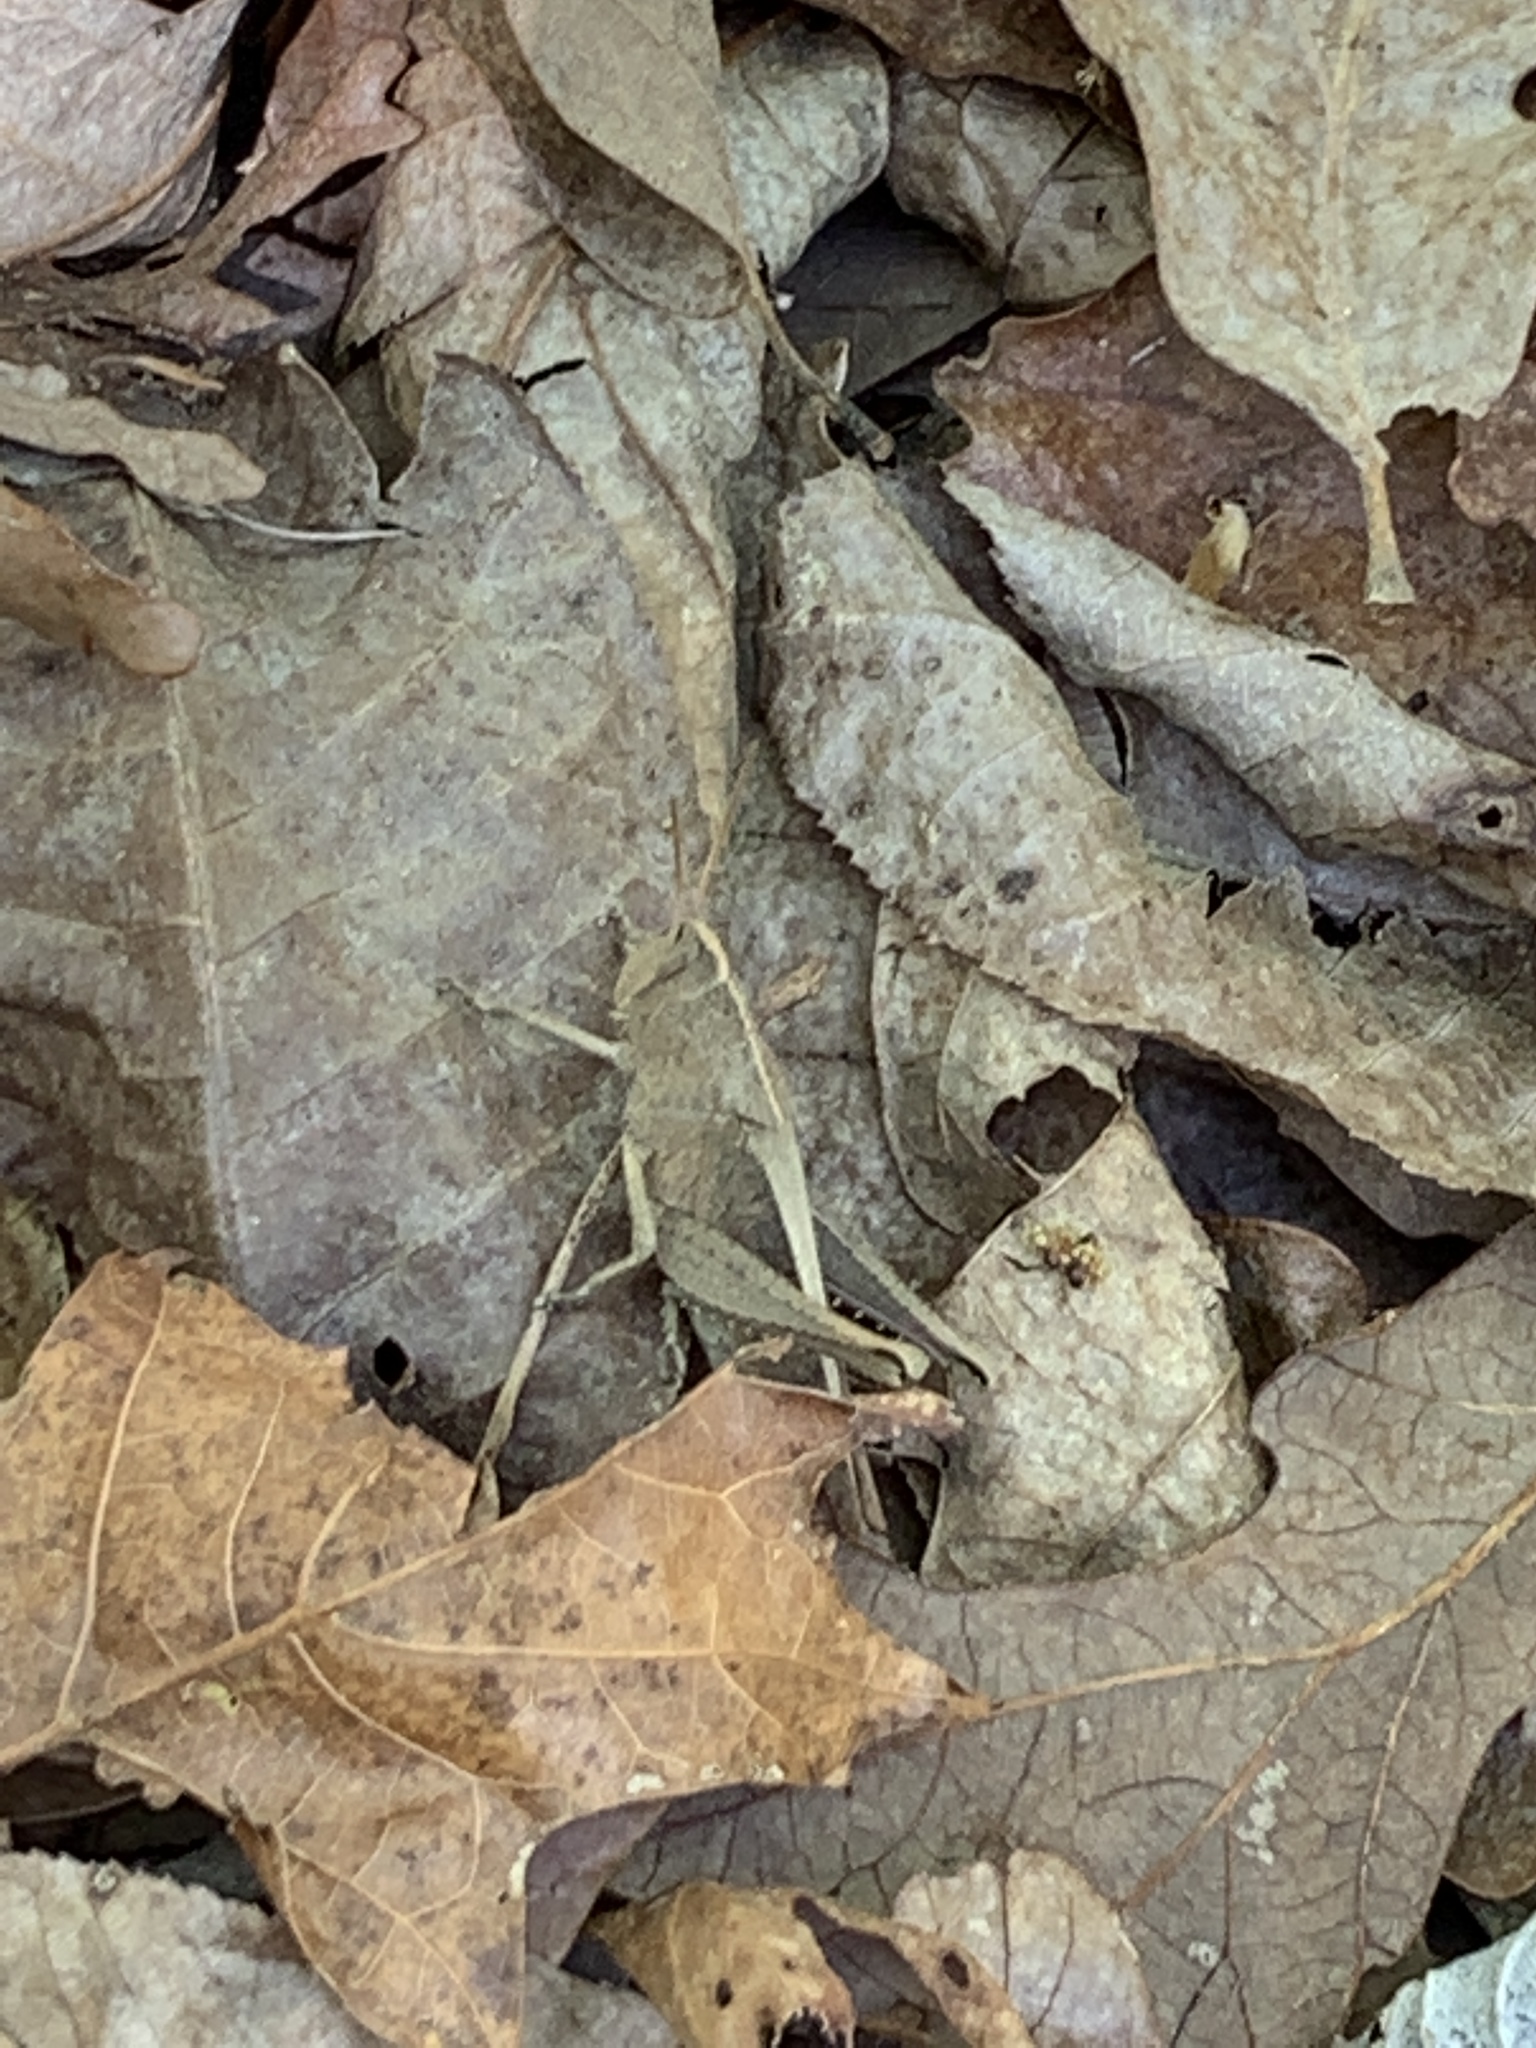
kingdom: Animalia
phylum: Arthropoda
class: Insecta
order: Orthoptera
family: Acrididae
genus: Schistocerca
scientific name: Schistocerca damnifica
